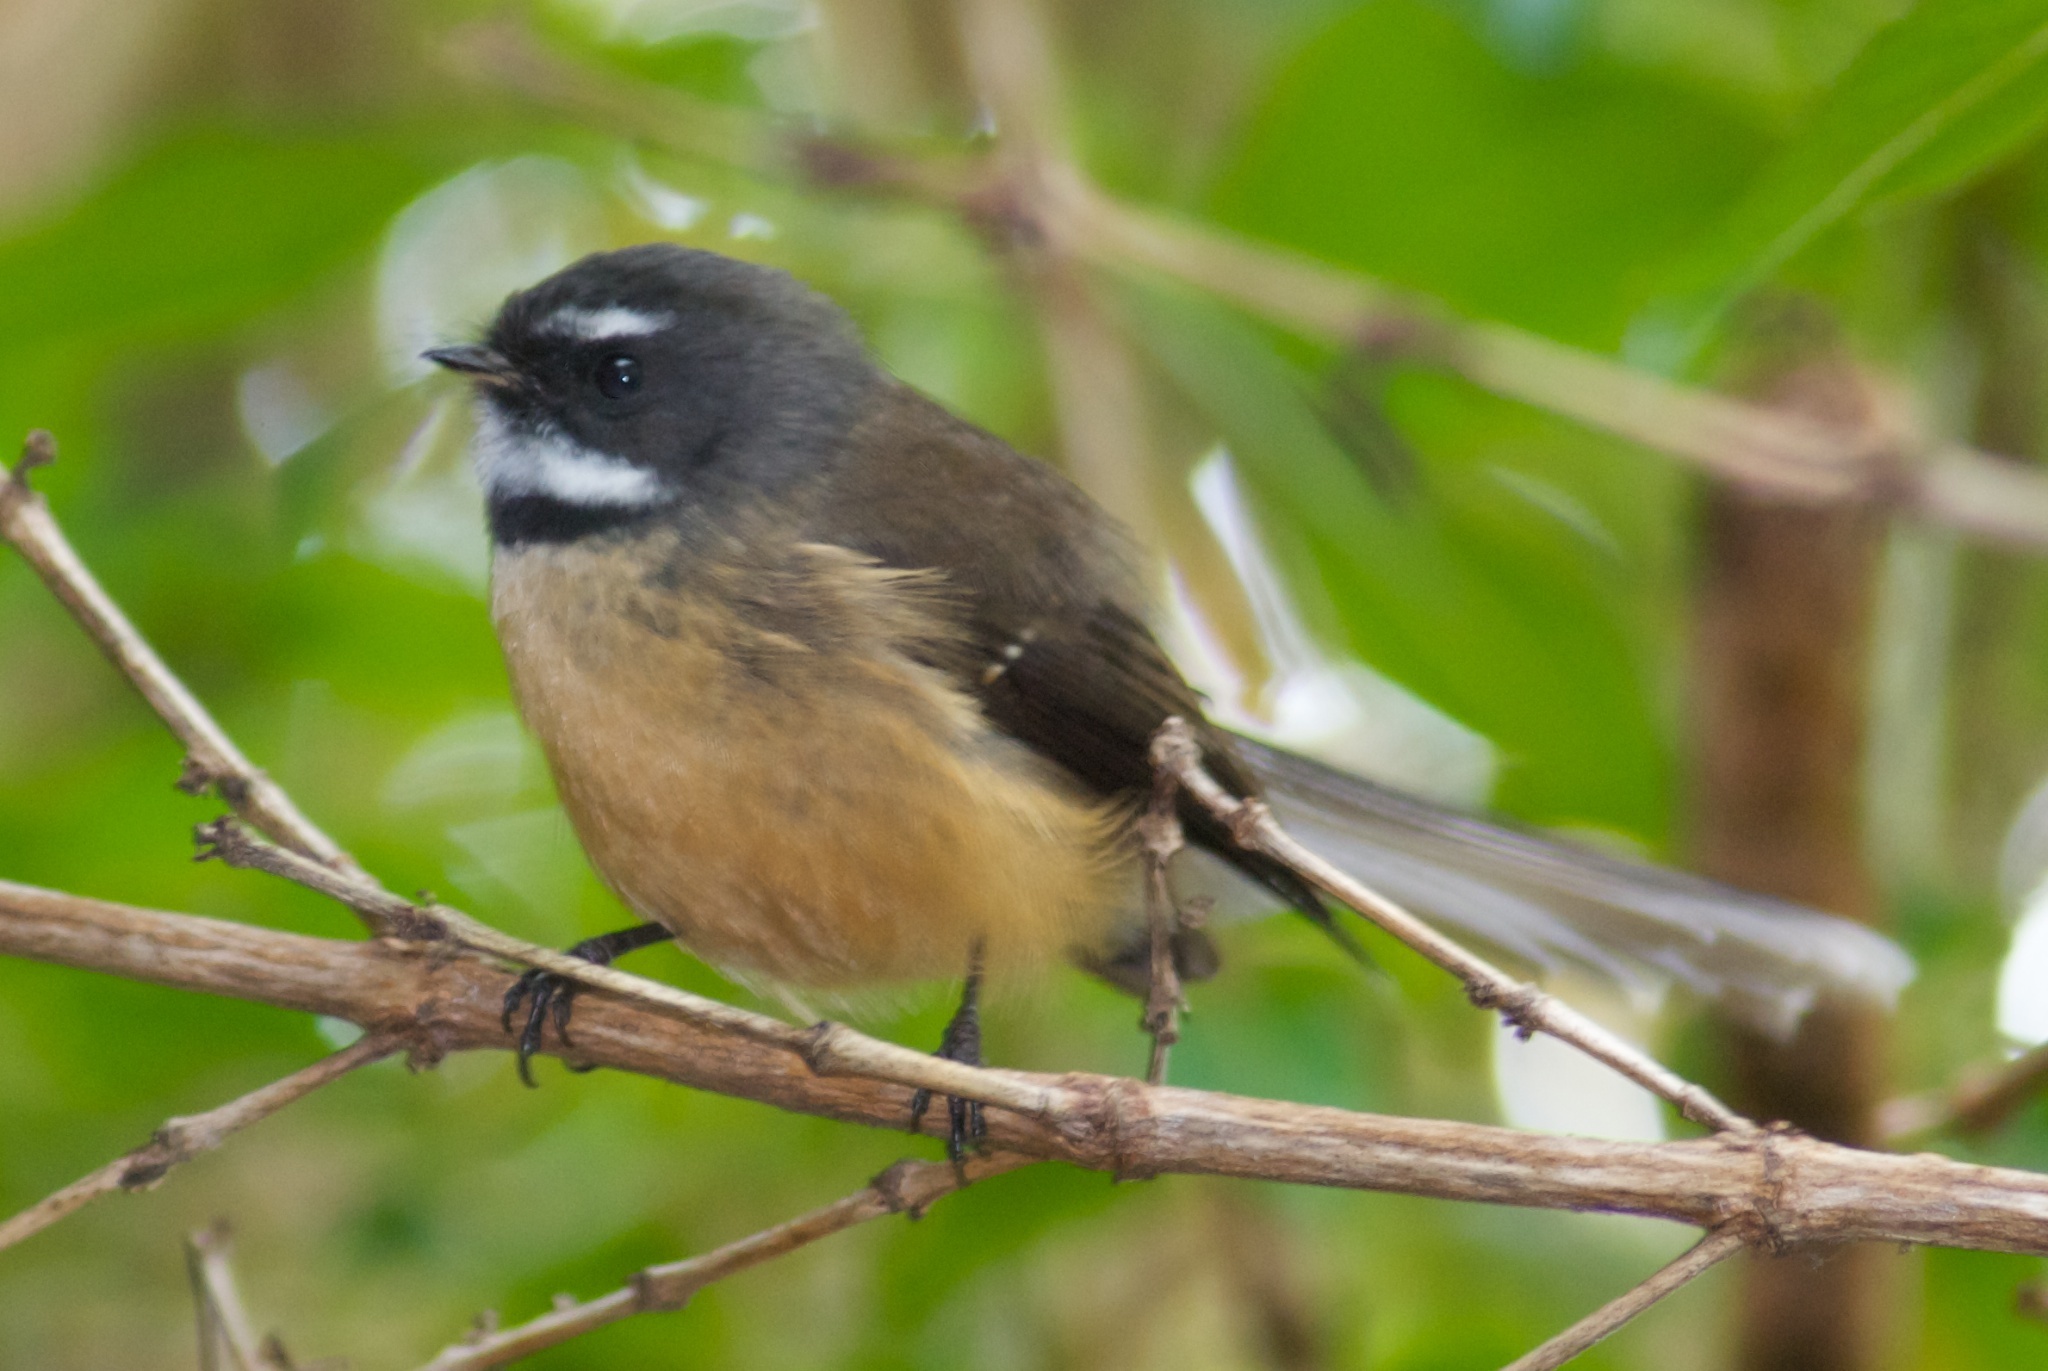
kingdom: Animalia
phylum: Chordata
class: Aves
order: Passeriformes
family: Rhipiduridae
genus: Rhipidura
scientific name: Rhipidura fuliginosa
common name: New zealand fantail
